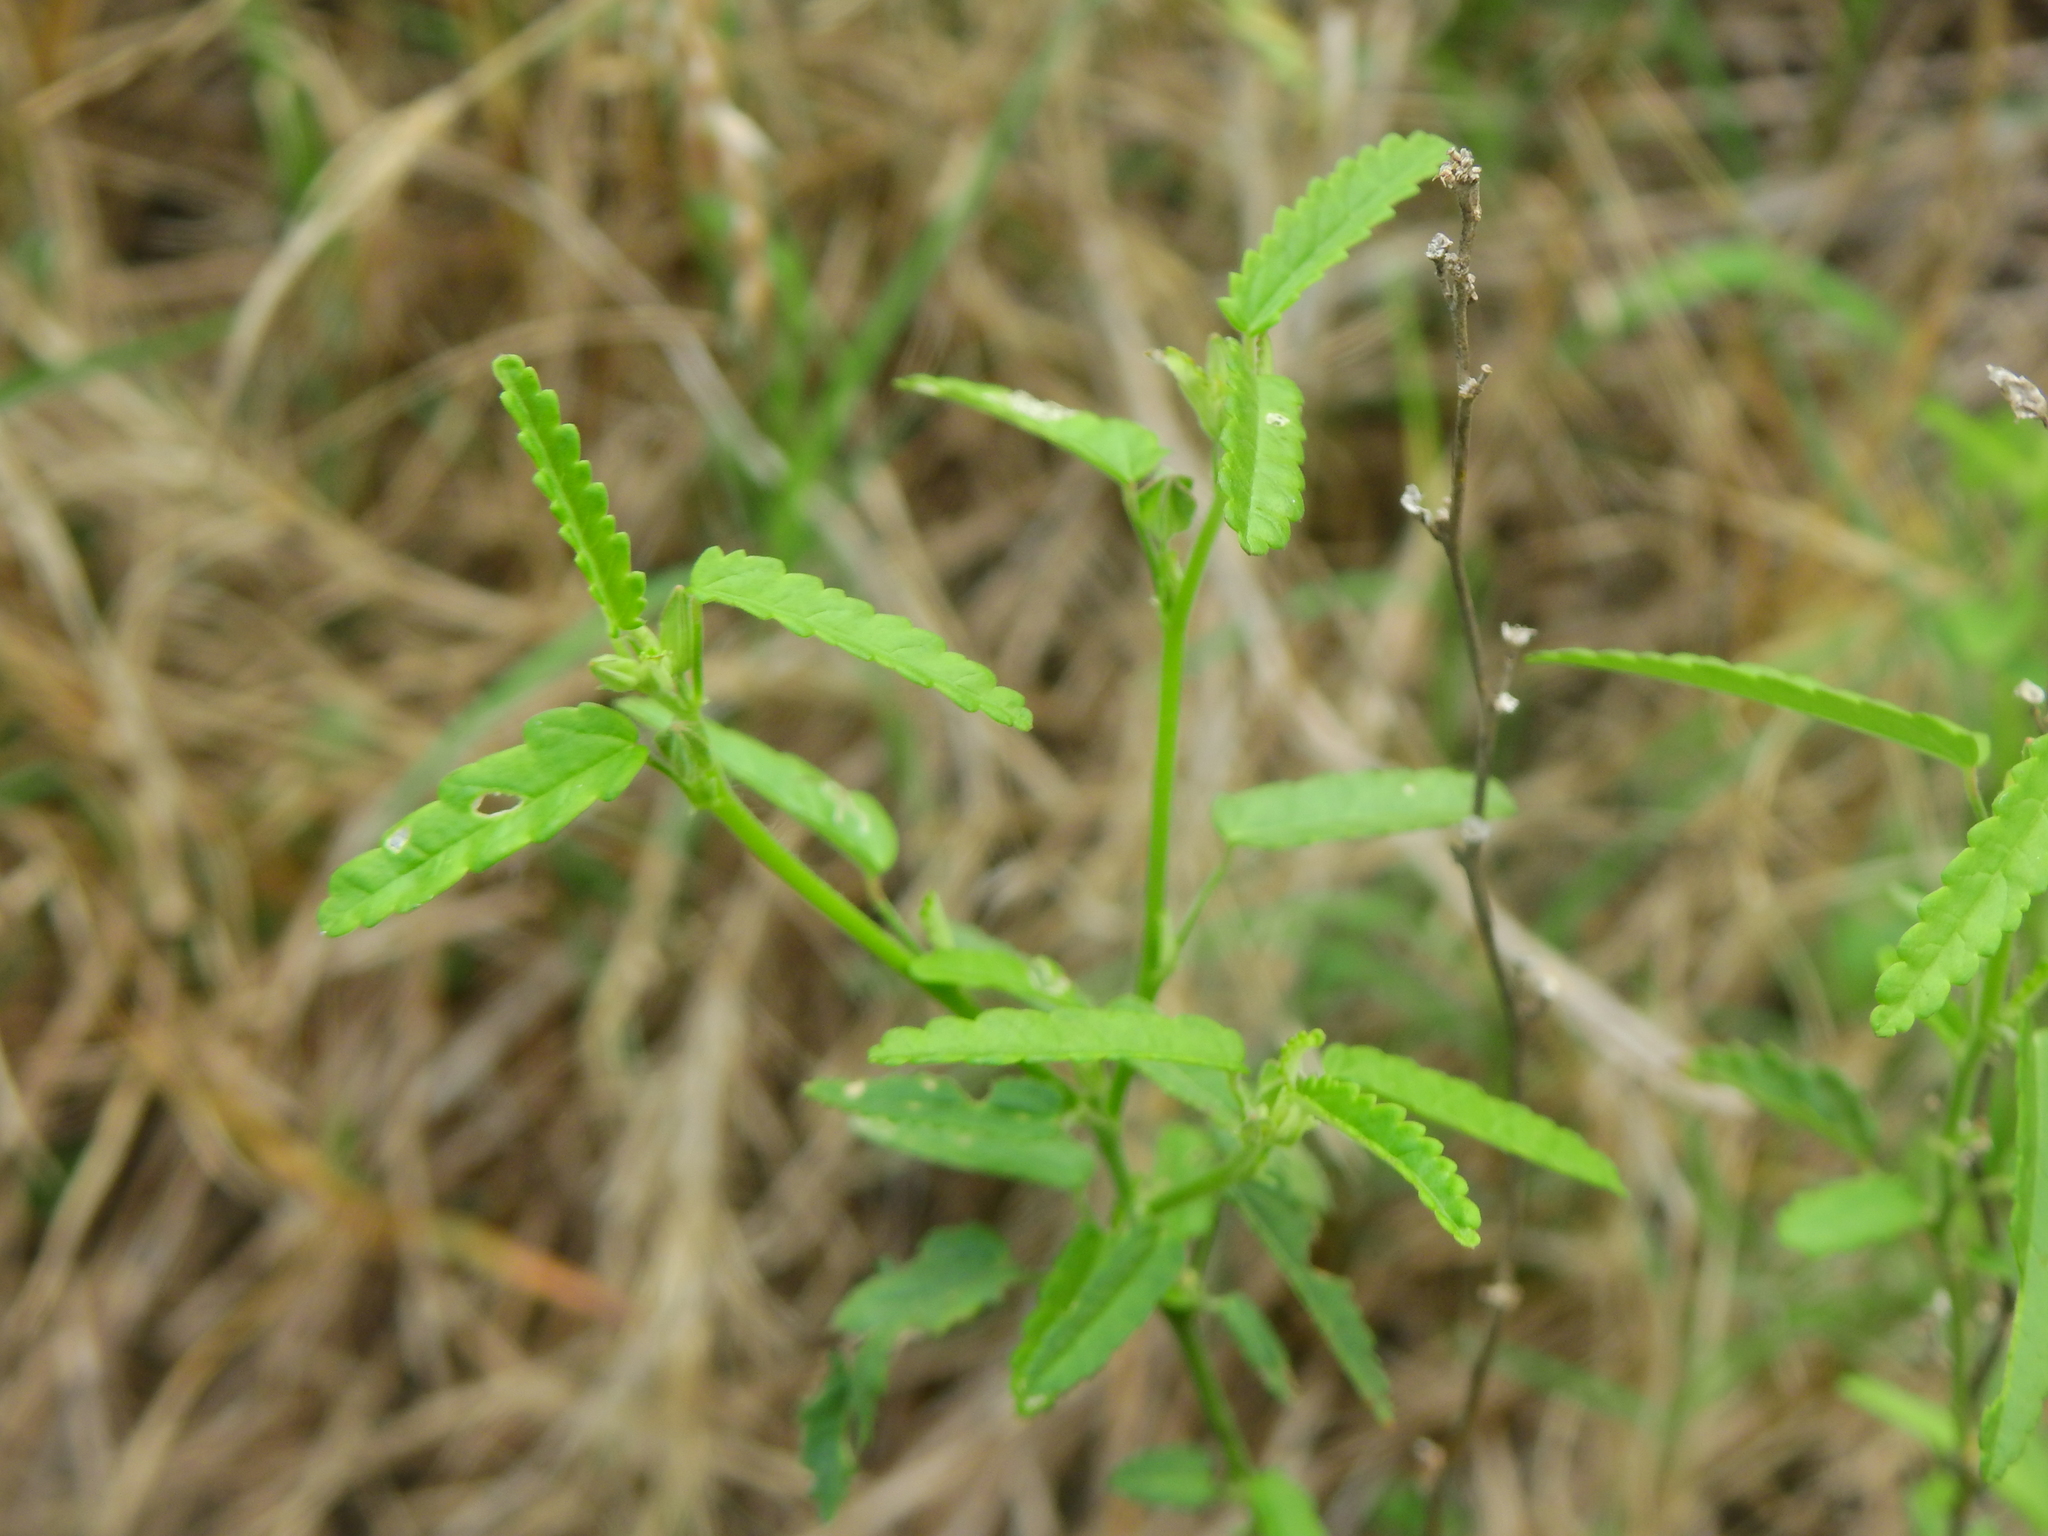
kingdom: Plantae
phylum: Tracheophyta
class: Magnoliopsida
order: Malvales
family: Malvaceae
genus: Sida
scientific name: Sida spinosa
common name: Prickly fanpetals
